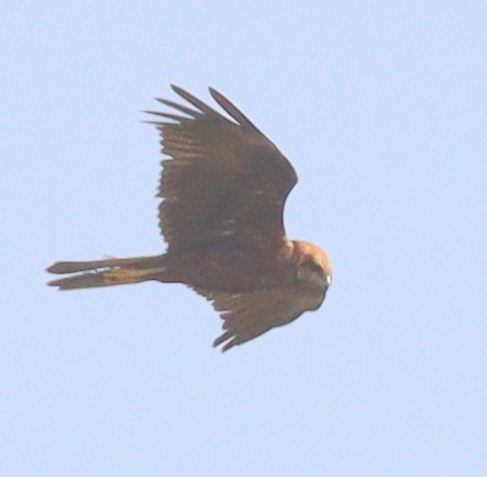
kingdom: Animalia
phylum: Chordata
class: Aves
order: Accipitriformes
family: Accipitridae
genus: Circus
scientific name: Circus aeruginosus
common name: Western marsh harrier
